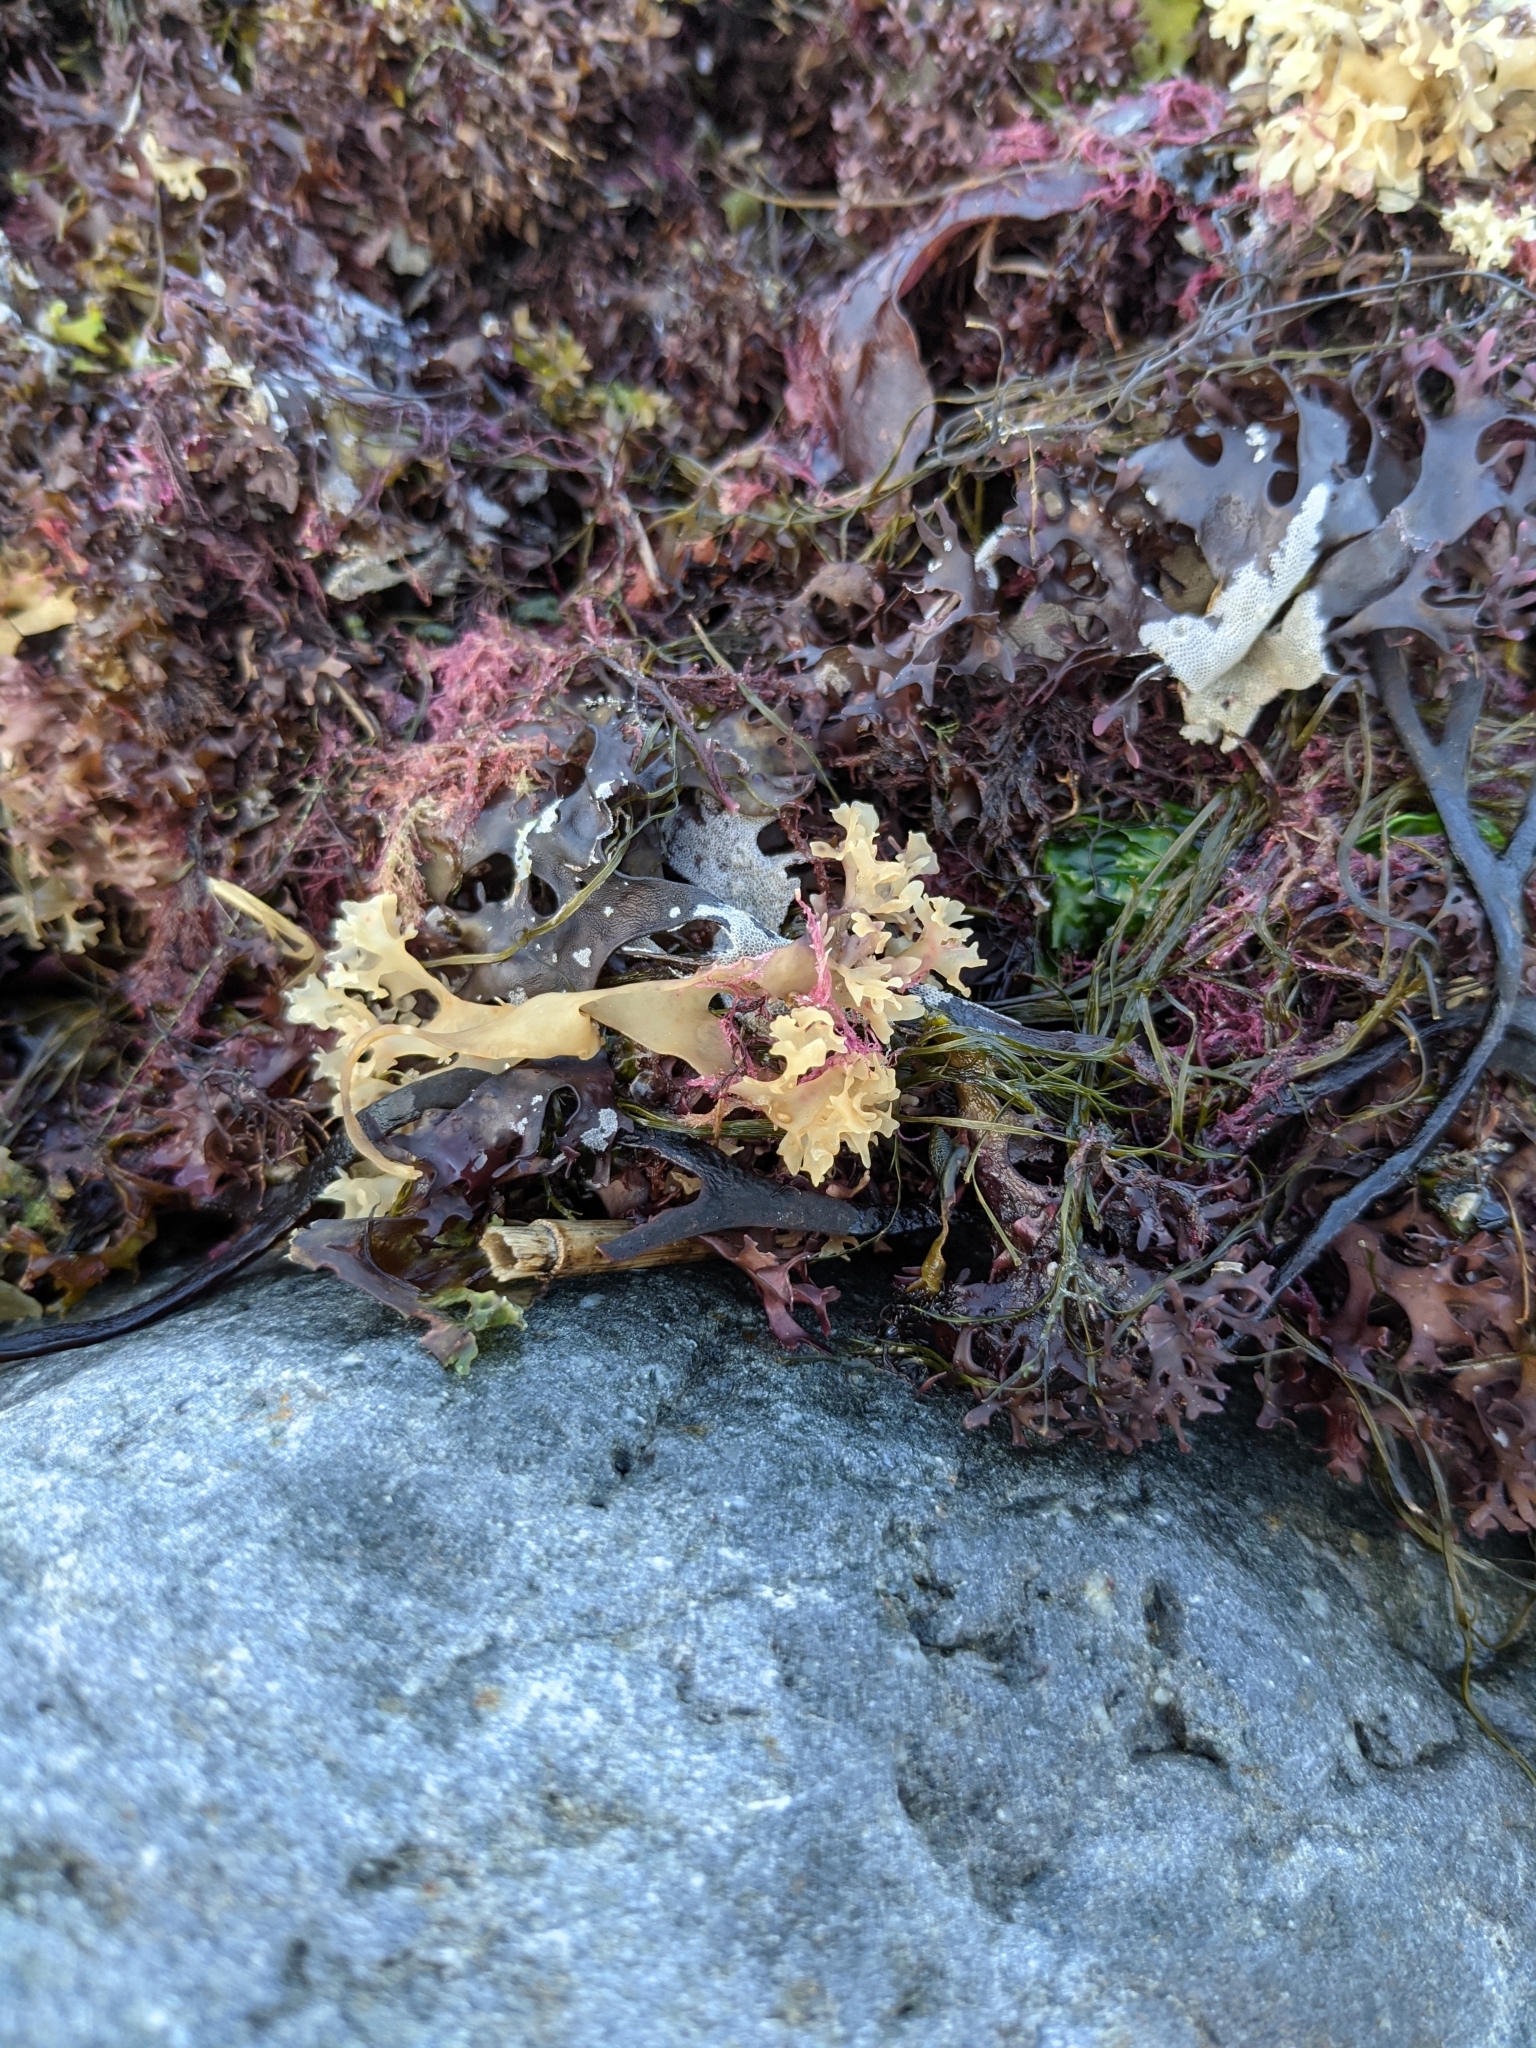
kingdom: Plantae
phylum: Rhodophyta
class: Florideophyceae
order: Gigartinales
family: Gigartinaceae
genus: Chondrus
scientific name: Chondrus crispus
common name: Carrageen
